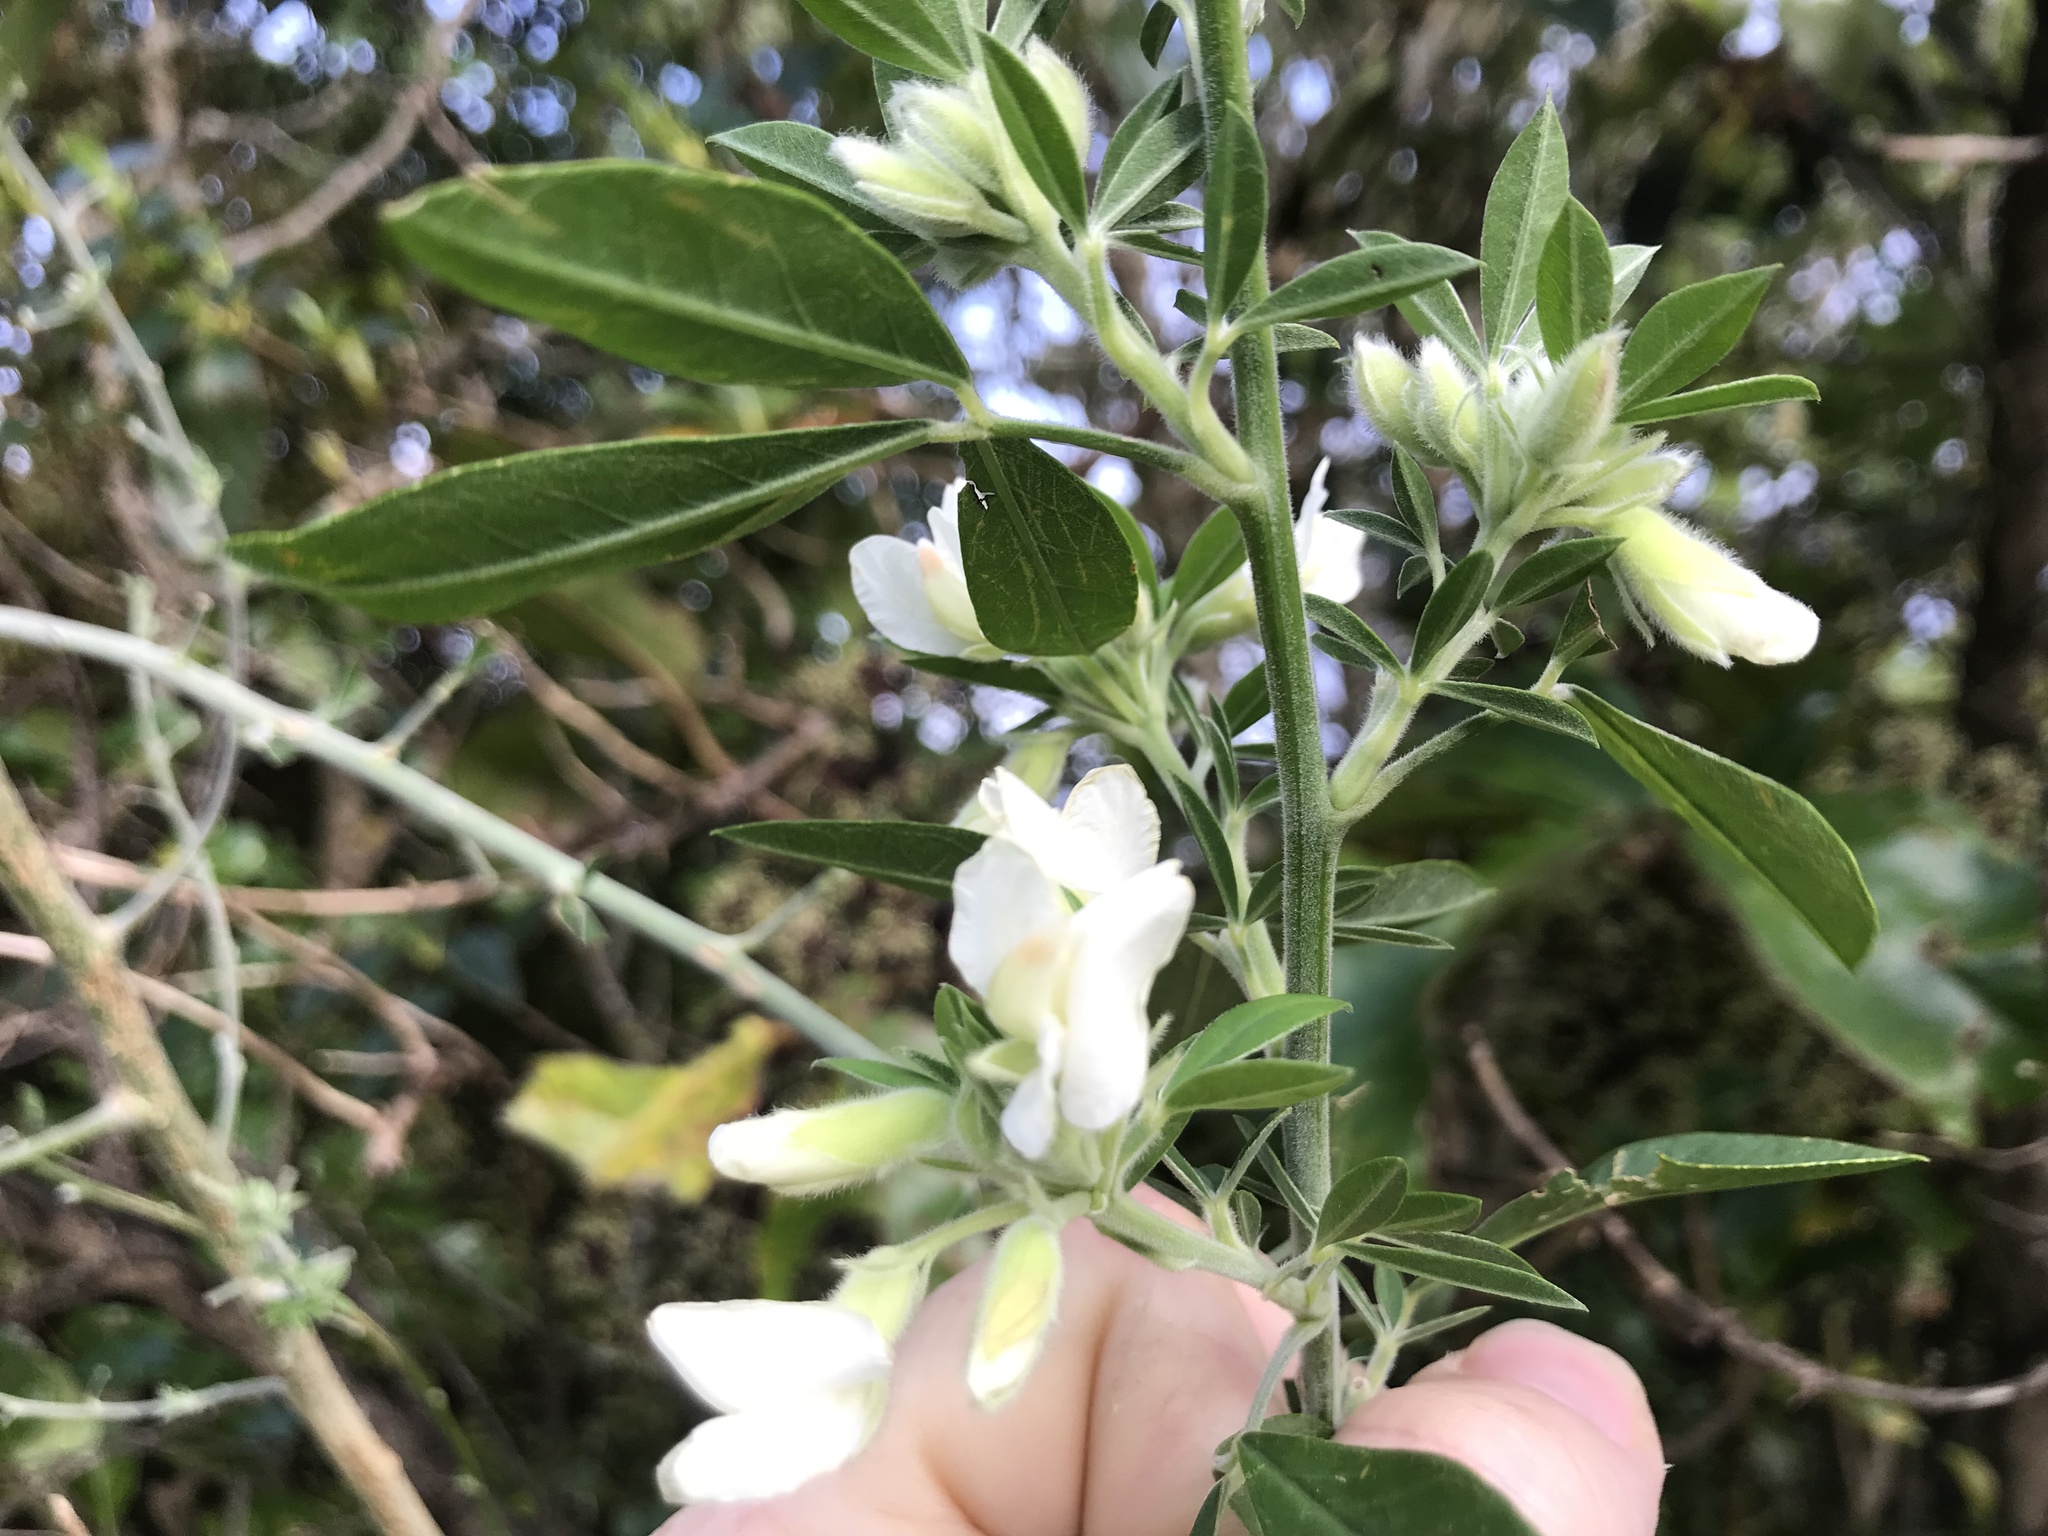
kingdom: Plantae
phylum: Tracheophyta
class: Magnoliopsida
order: Fabales
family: Fabaceae
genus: Chamaecytisus
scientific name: Chamaecytisus prolifer
